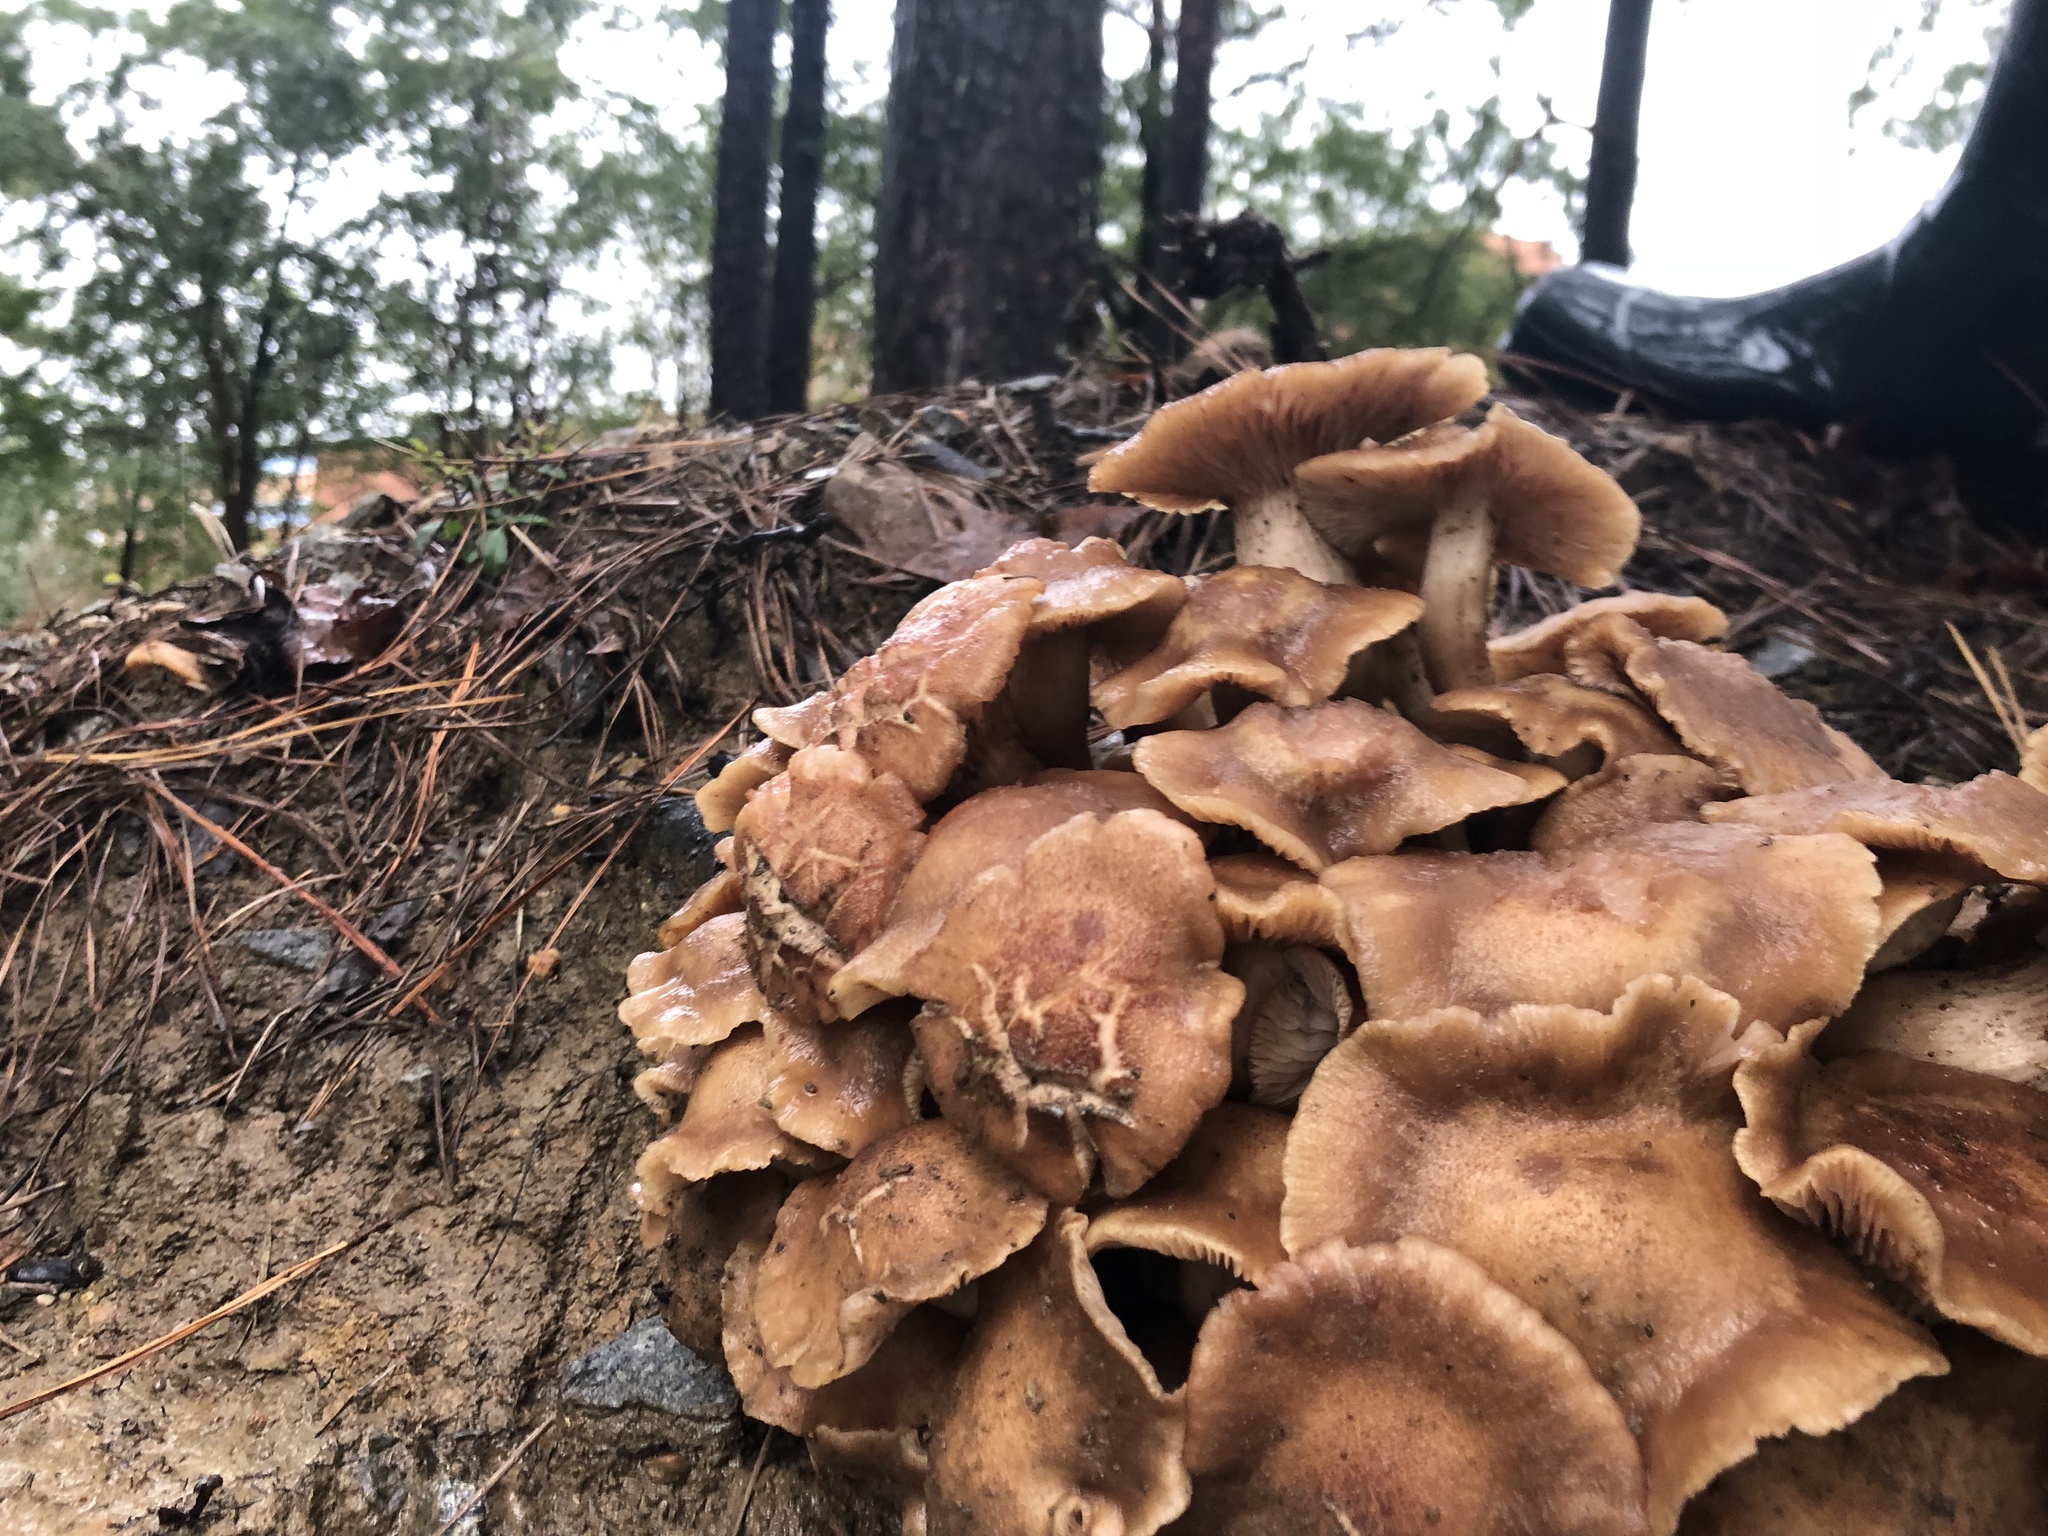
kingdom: Fungi
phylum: Basidiomycota
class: Agaricomycetes
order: Agaricales
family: Physalacriaceae
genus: Desarmillaria
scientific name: Desarmillaria caespitosa
